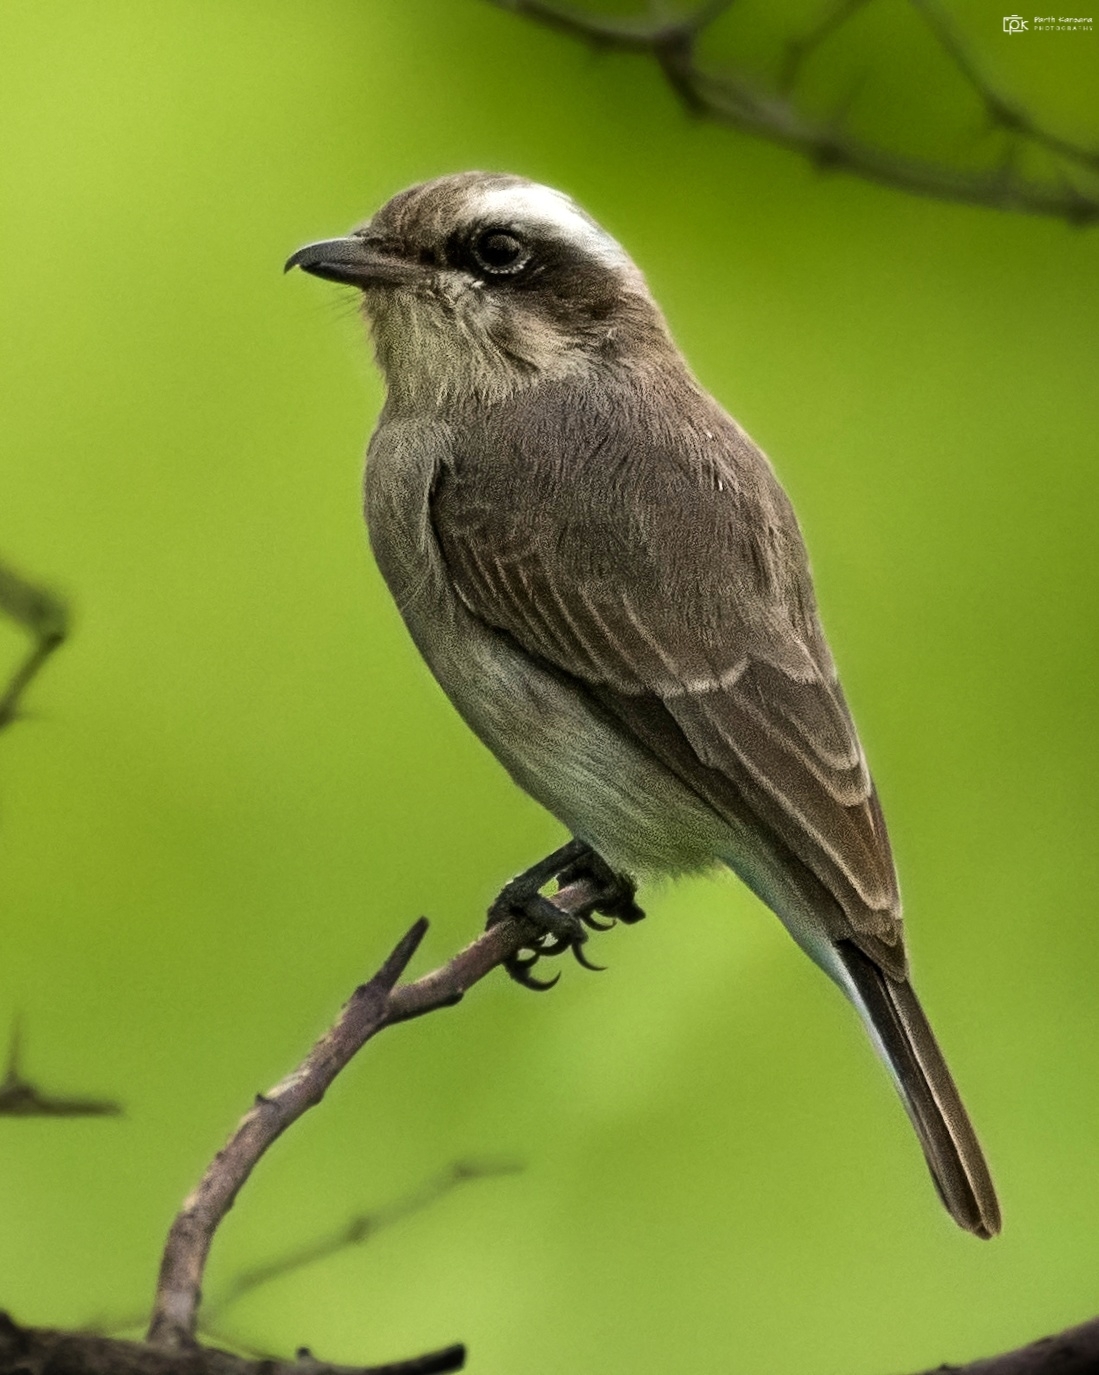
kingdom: Animalia
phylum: Chordata
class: Aves
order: Passeriformes
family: Tephrodornithidae
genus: Tephrodornis
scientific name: Tephrodornis pondicerianus
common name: Common woodshrike
